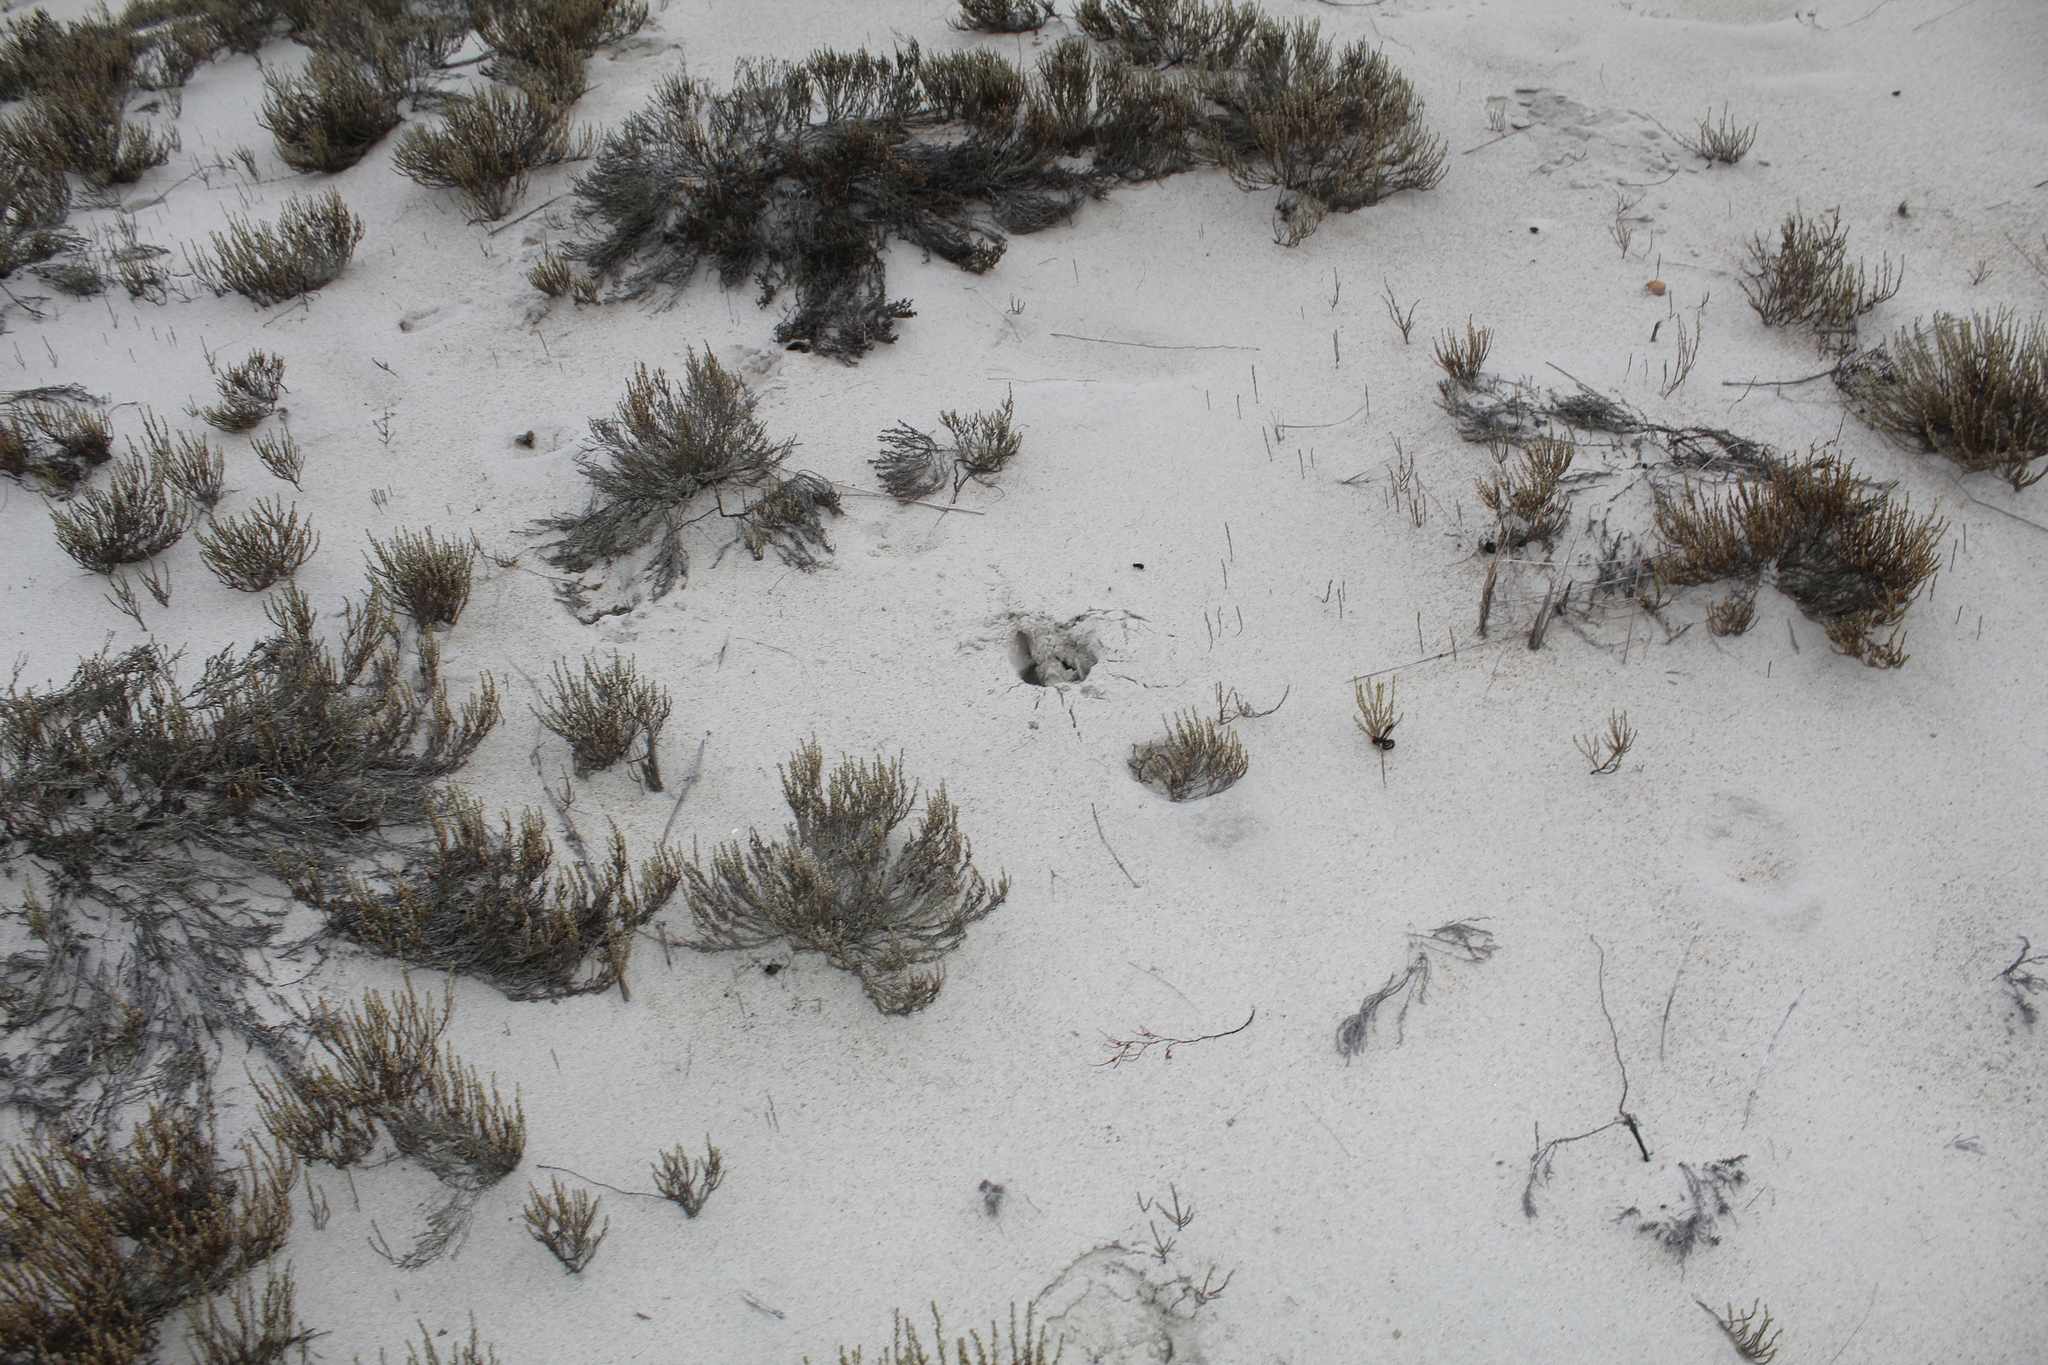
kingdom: Plantae
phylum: Tracheophyta
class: Magnoliopsida
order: Malvales
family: Cistaceae
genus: Hudsonia
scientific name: Hudsonia tomentosa
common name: Beach-heath
